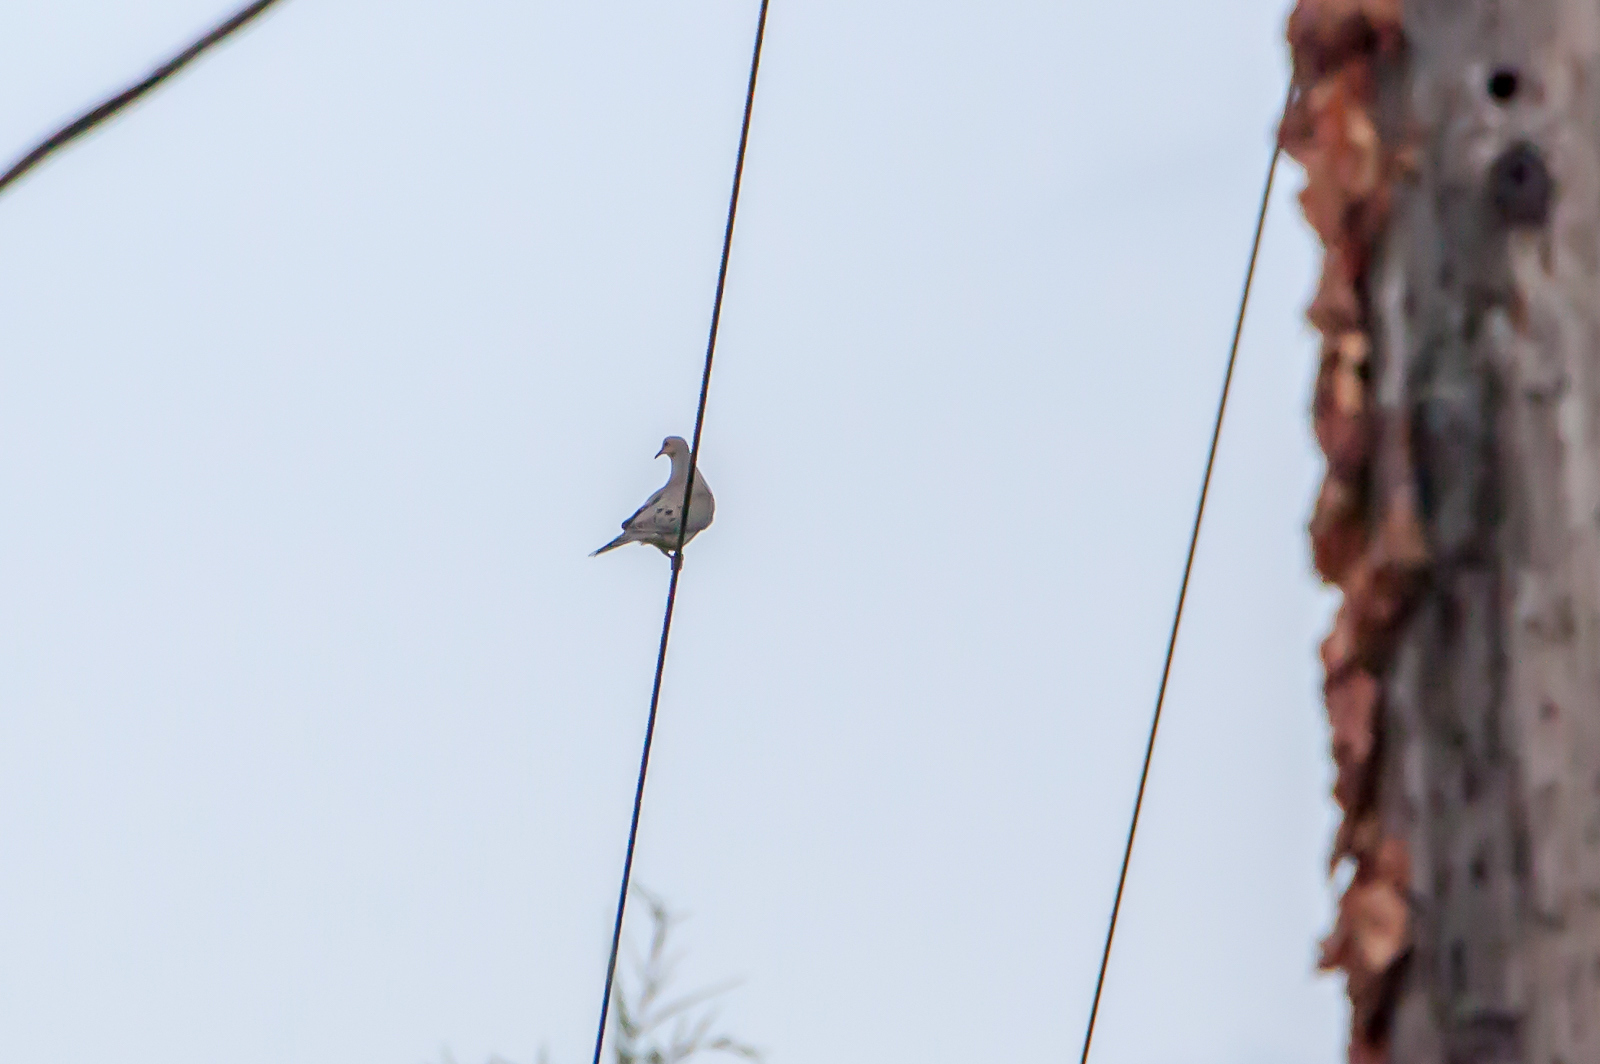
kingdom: Animalia
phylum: Chordata
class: Aves
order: Columbiformes
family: Columbidae
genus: Zenaida
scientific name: Zenaida macroura
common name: Mourning dove
